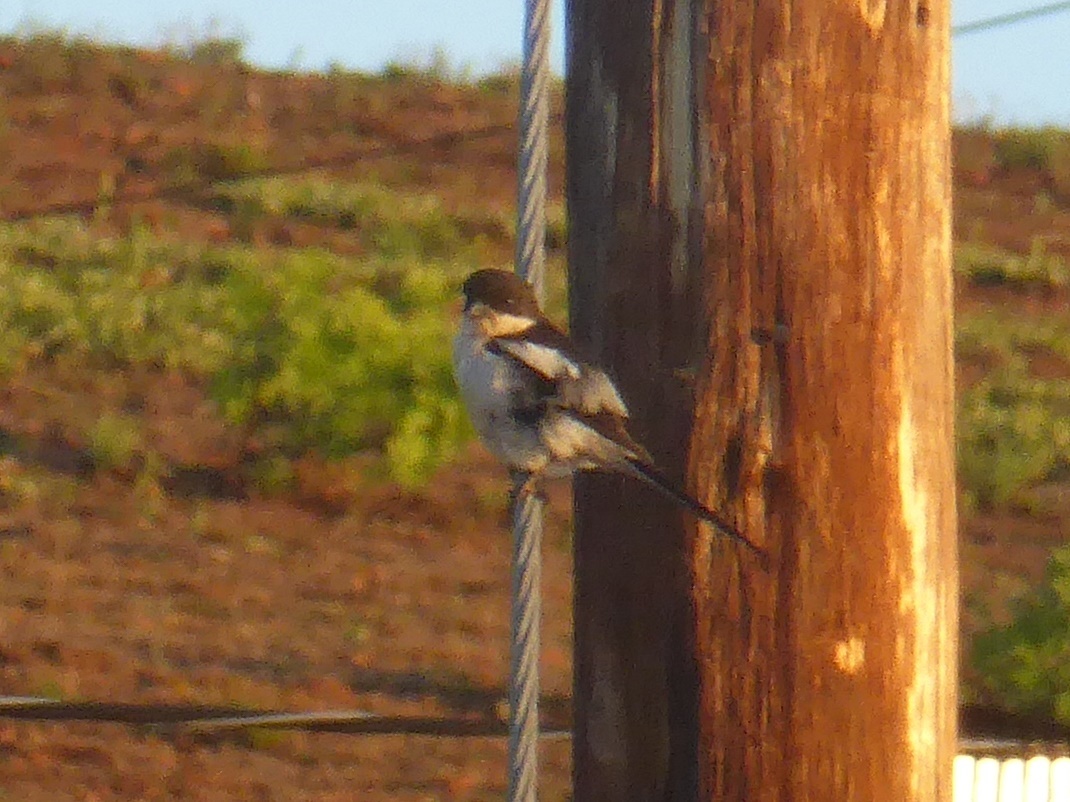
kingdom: Animalia
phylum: Chordata
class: Aves
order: Passeriformes
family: Laniidae
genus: Lanius
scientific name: Lanius collaris
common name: Southern fiscal
